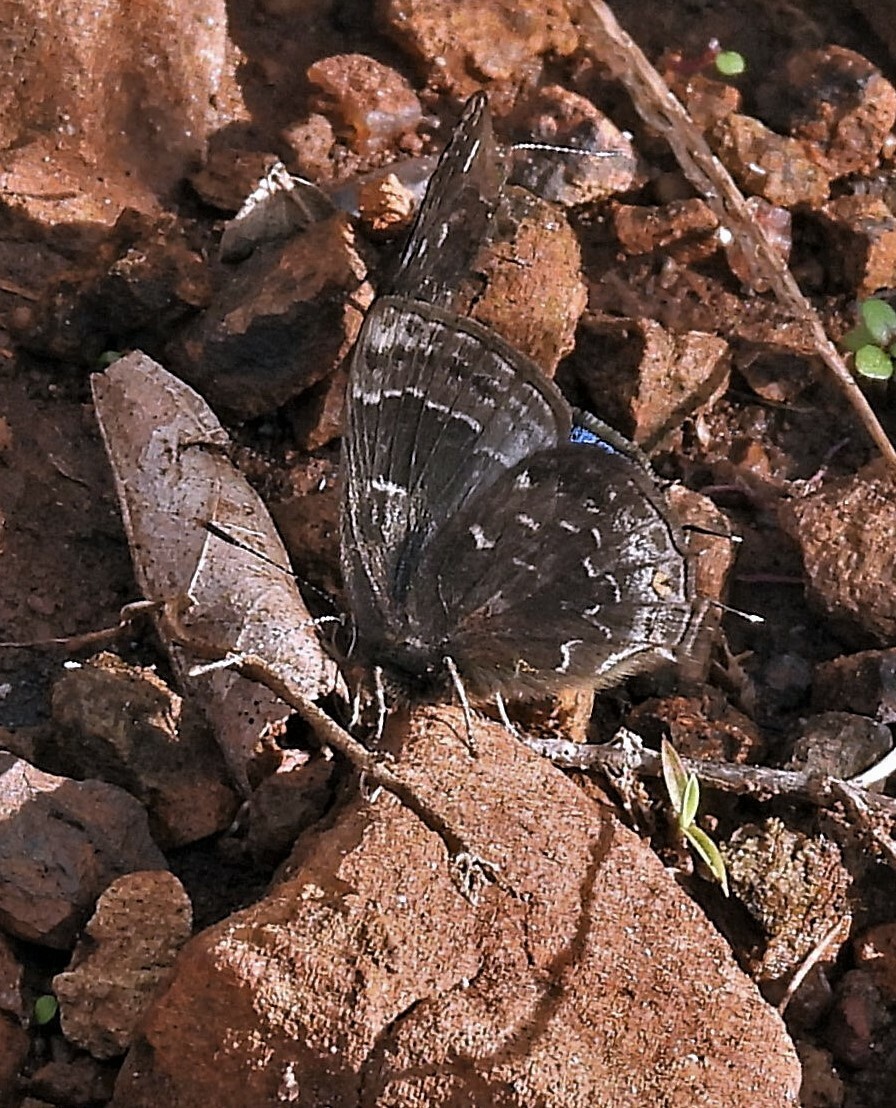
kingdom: Animalia
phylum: Arthropoda
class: Insecta
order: Lepidoptera
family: Lycaenidae
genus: Ocaria
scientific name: Ocaria ocrisia
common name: Black hairstreak
